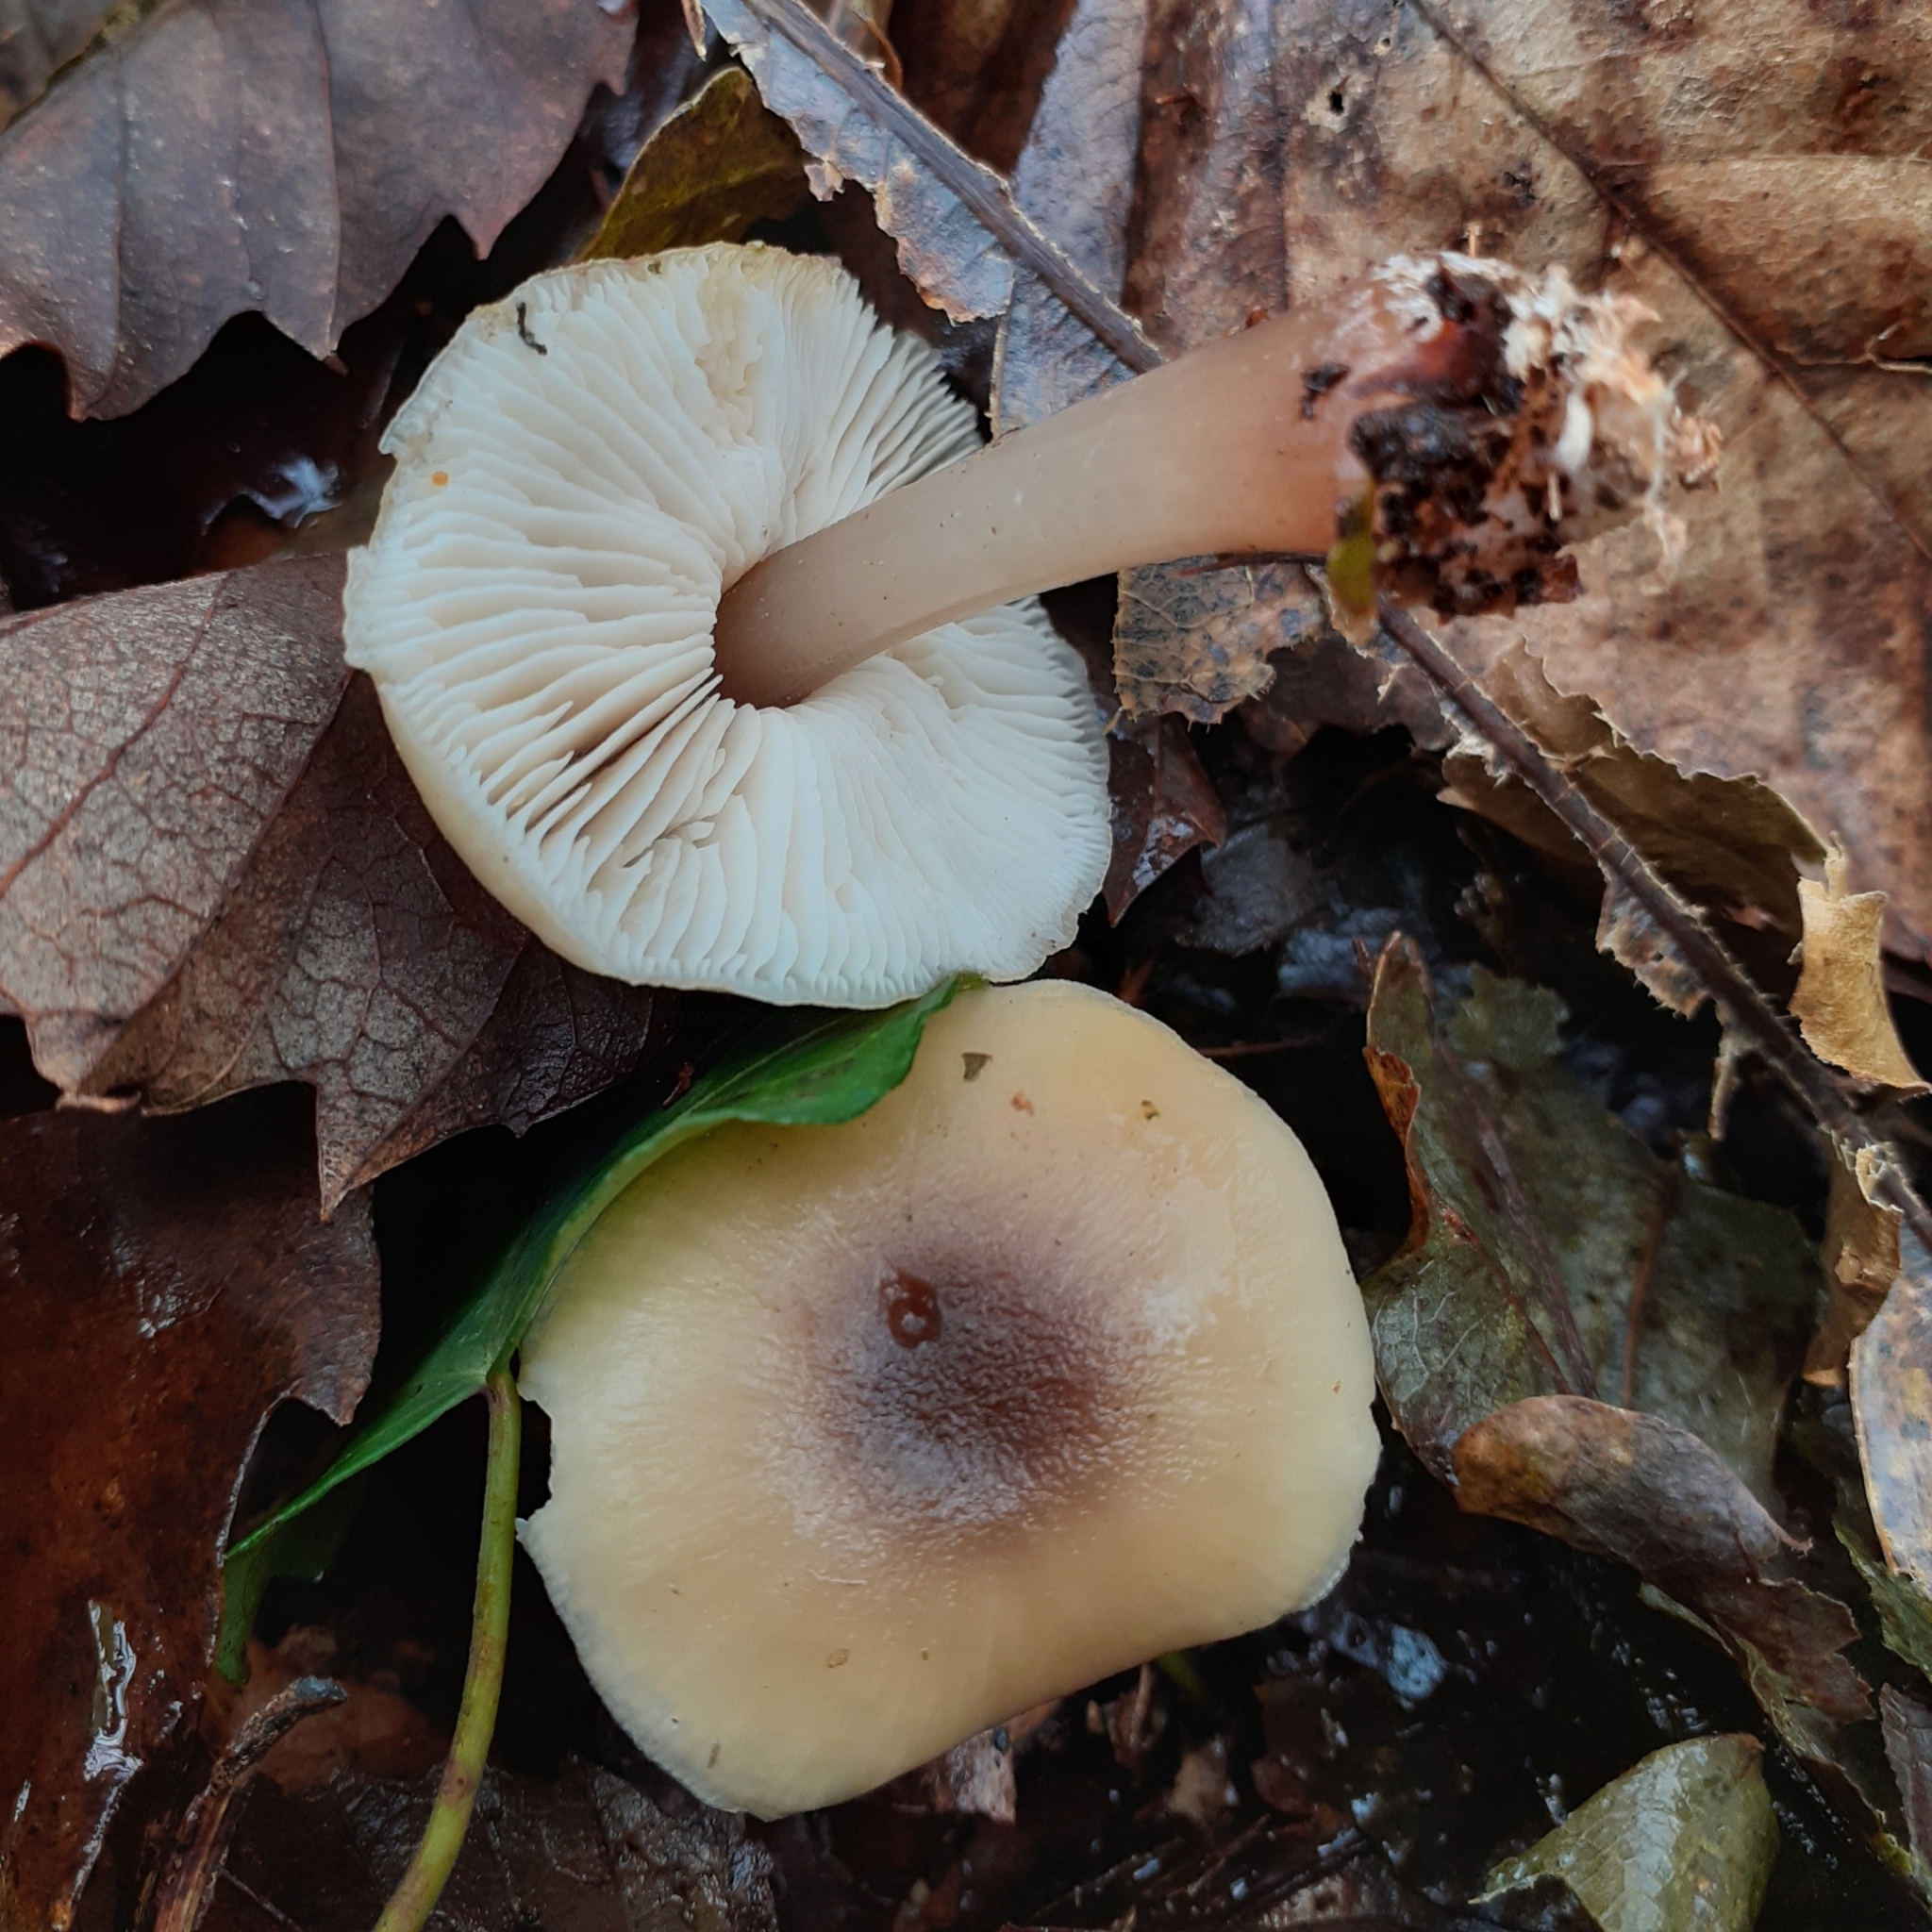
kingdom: Fungi
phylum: Basidiomycota
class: Agaricomycetes
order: Agaricales
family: Omphalotaceae
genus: Rhodocollybia
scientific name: Rhodocollybia butyracea
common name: Butter cap
